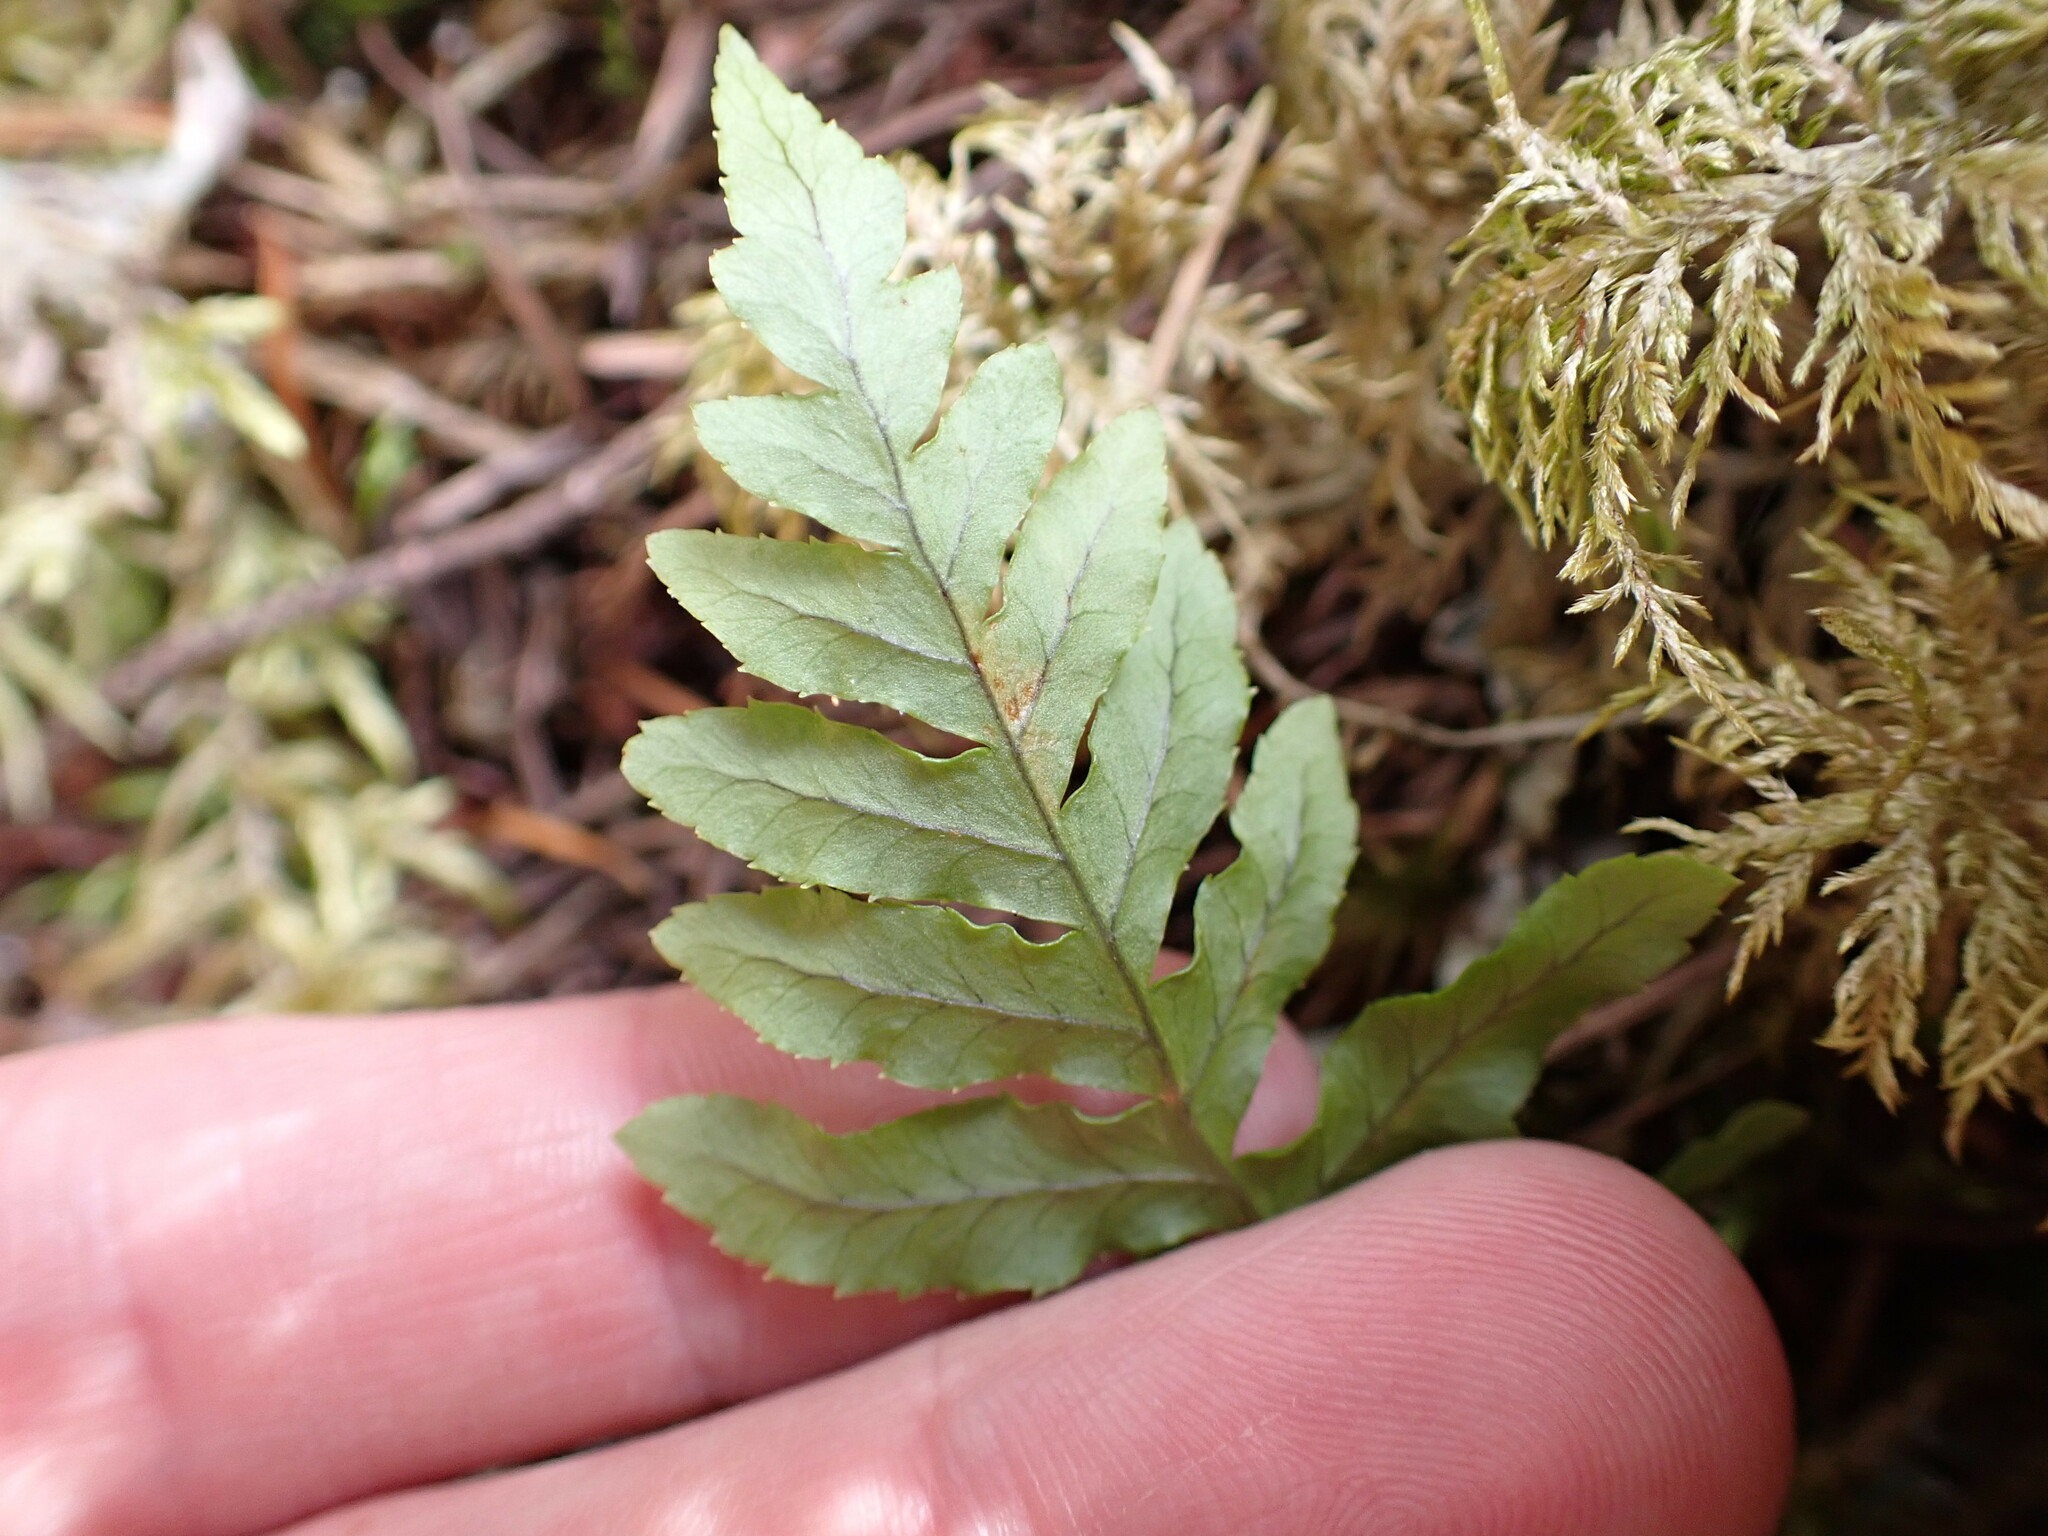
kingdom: Plantae
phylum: Tracheophyta
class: Polypodiopsida
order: Polypodiales
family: Polypodiaceae
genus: Polypodium
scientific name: Polypodium glycyrrhiza
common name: Licorice fern
